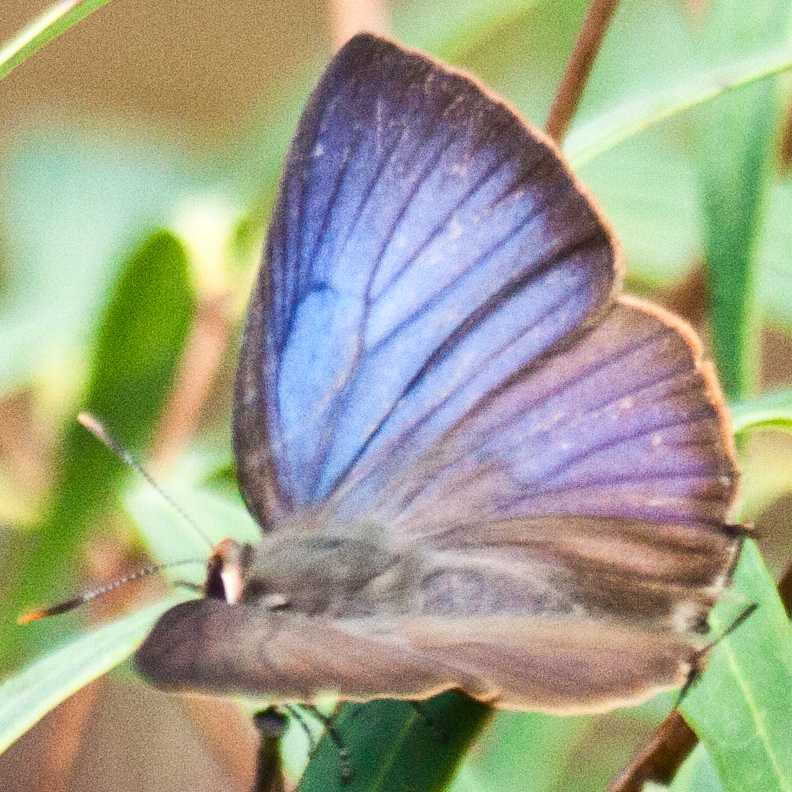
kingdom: Animalia
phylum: Arthropoda
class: Insecta
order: Lepidoptera
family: Lycaenidae
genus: Flos
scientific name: Flos
